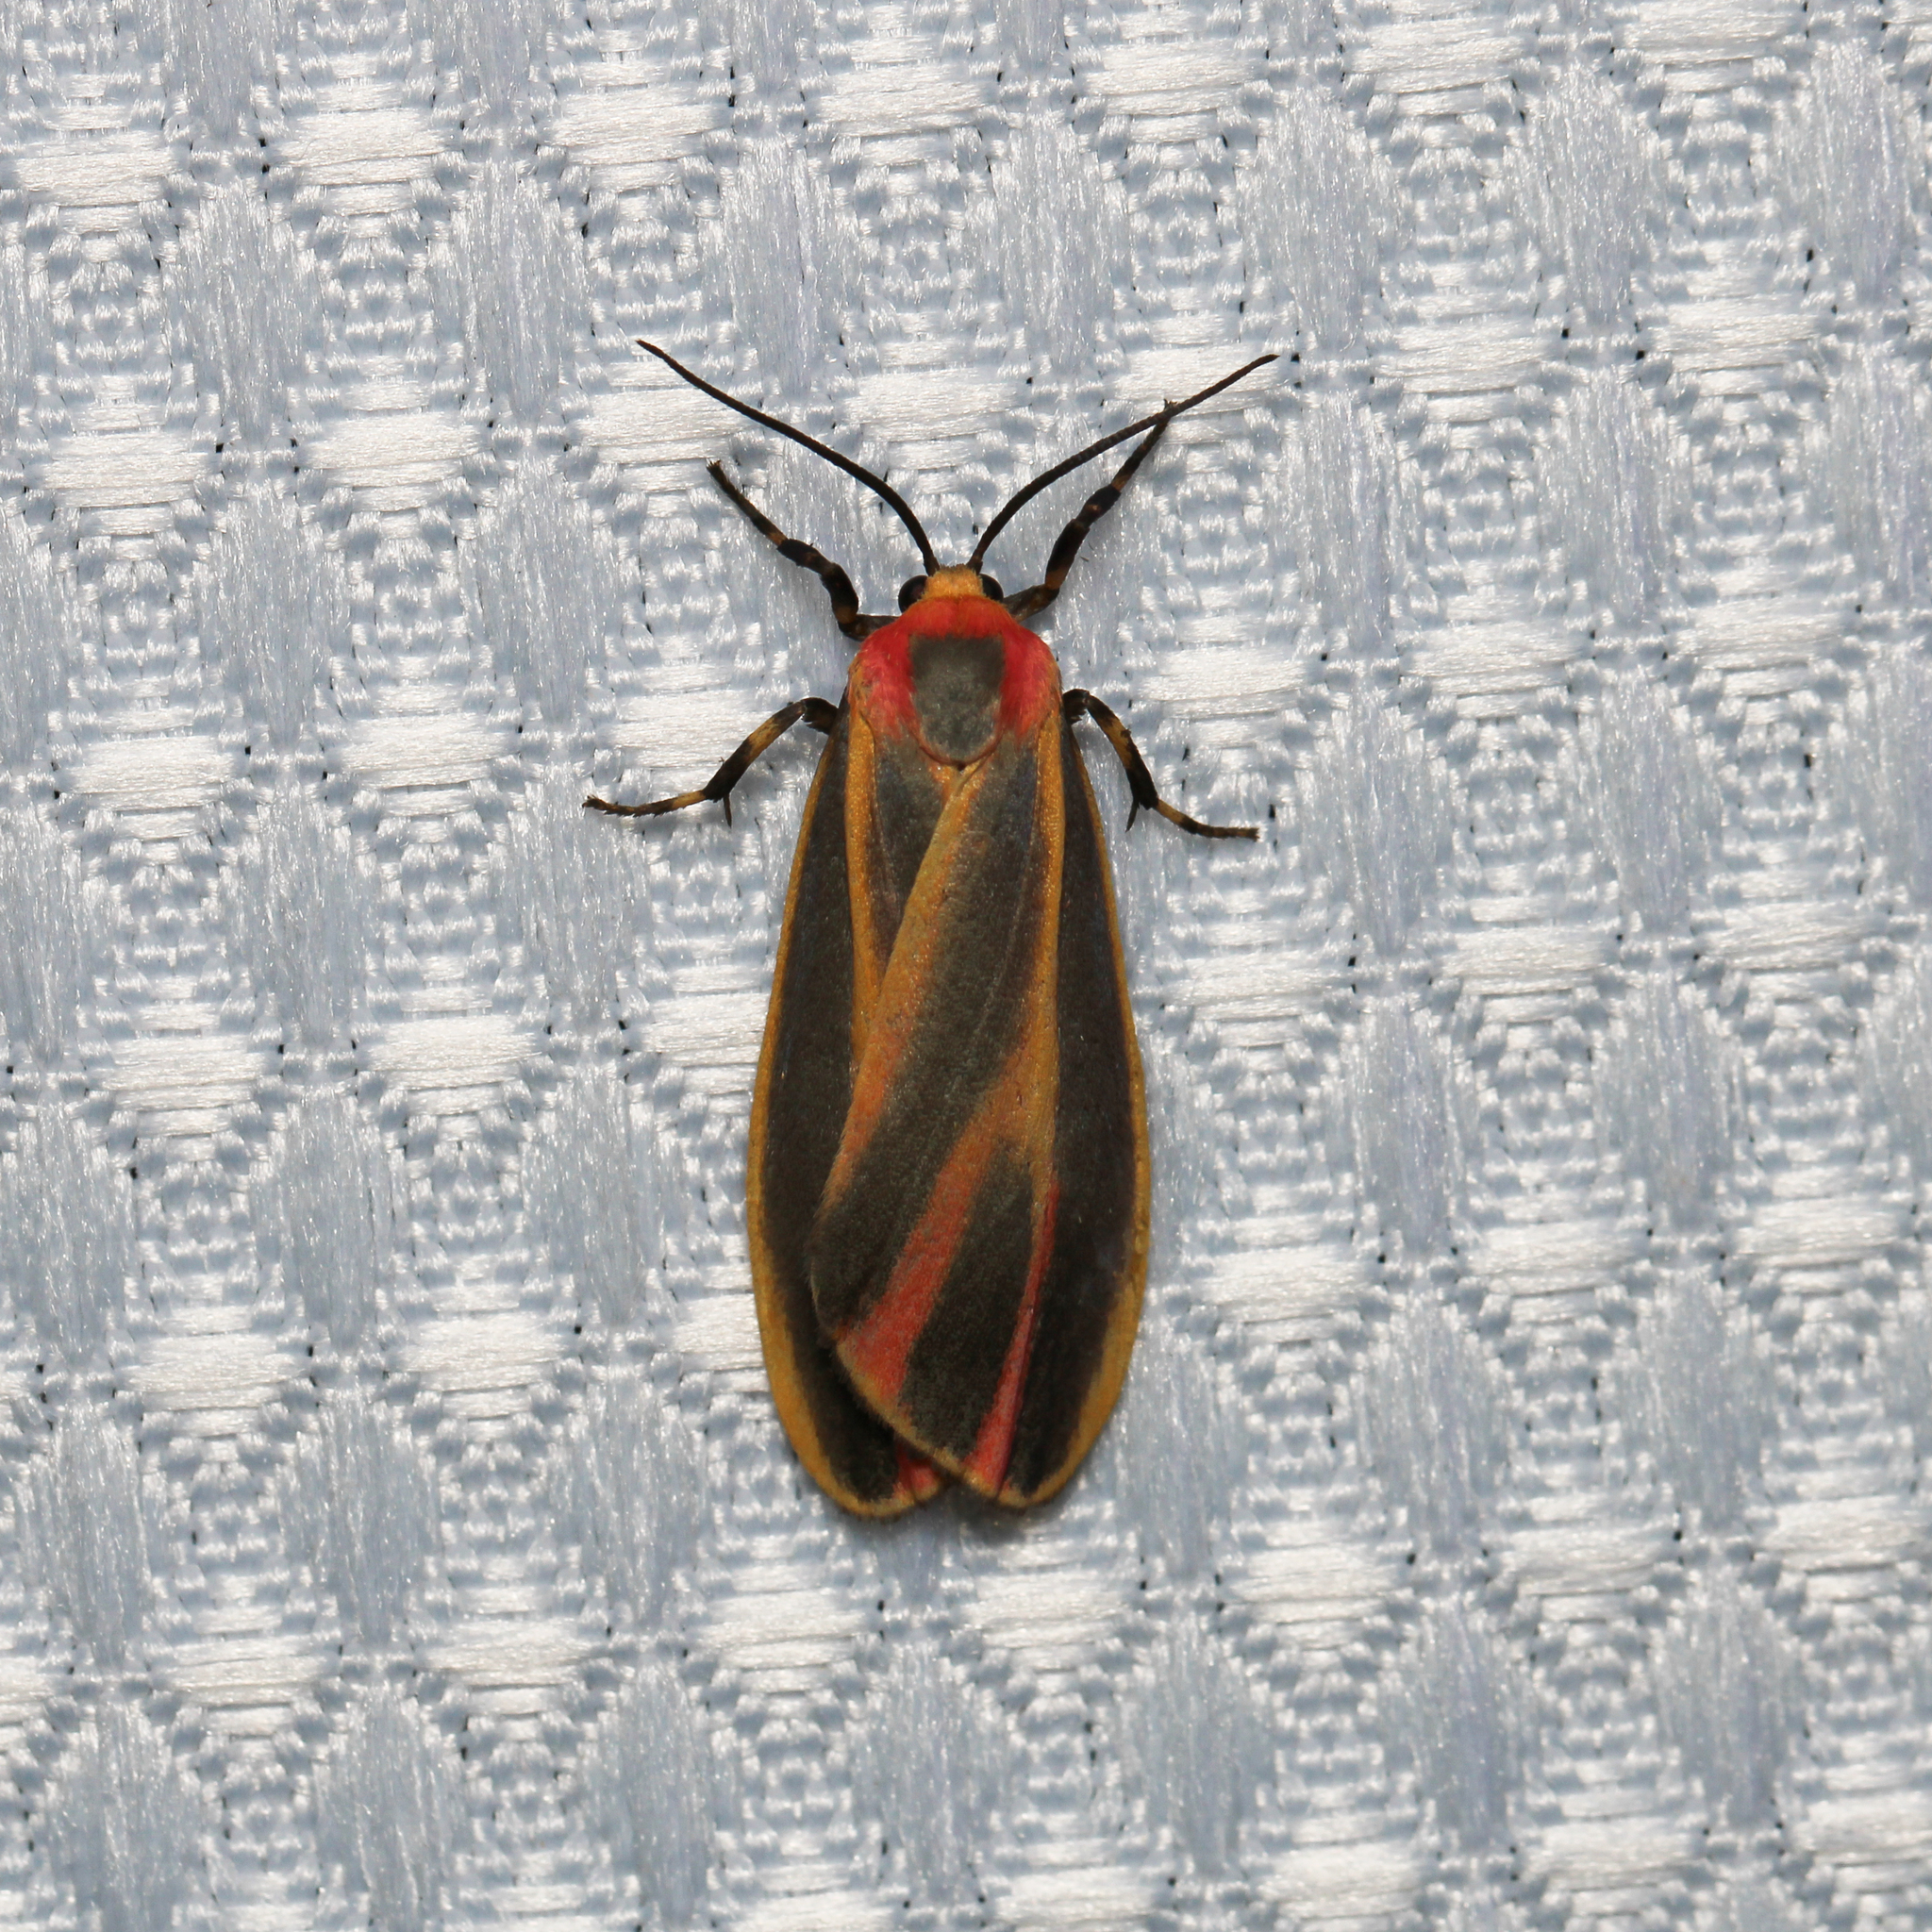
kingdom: Animalia
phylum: Arthropoda
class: Insecta
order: Lepidoptera
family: Erebidae
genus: Hypoprepia
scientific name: Hypoprepia fucosa
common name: Painted lichen moth
